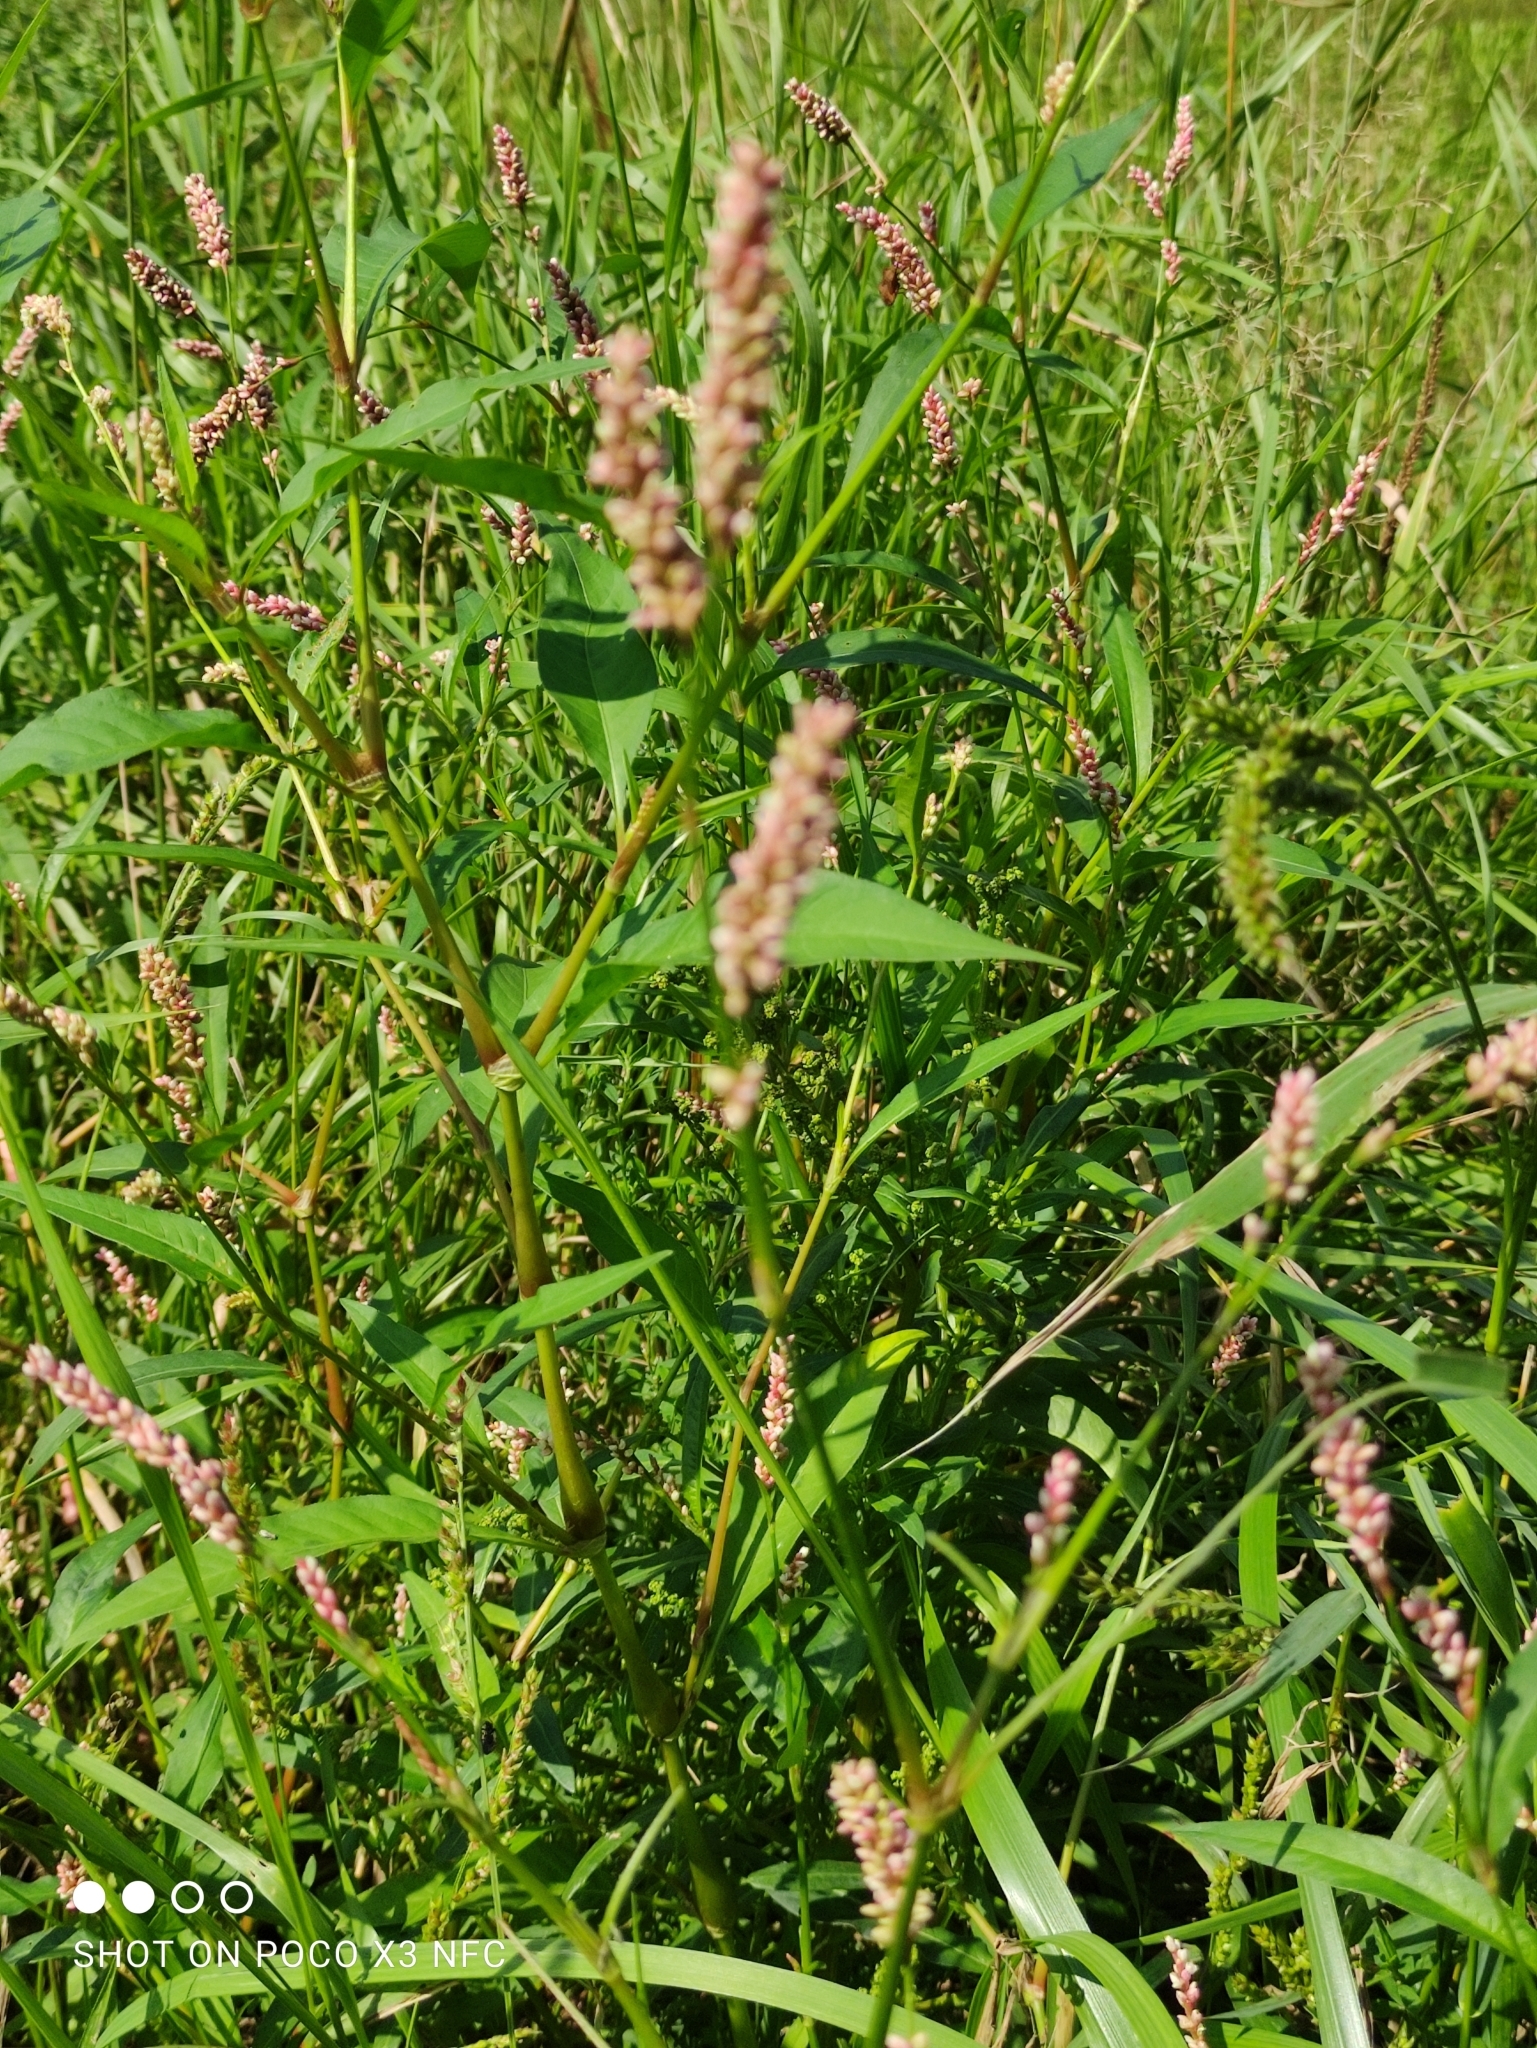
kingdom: Plantae
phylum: Tracheophyta
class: Magnoliopsida
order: Caryophyllales
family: Polygonaceae
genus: Persicaria
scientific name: Persicaria maculosa
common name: Redshank
